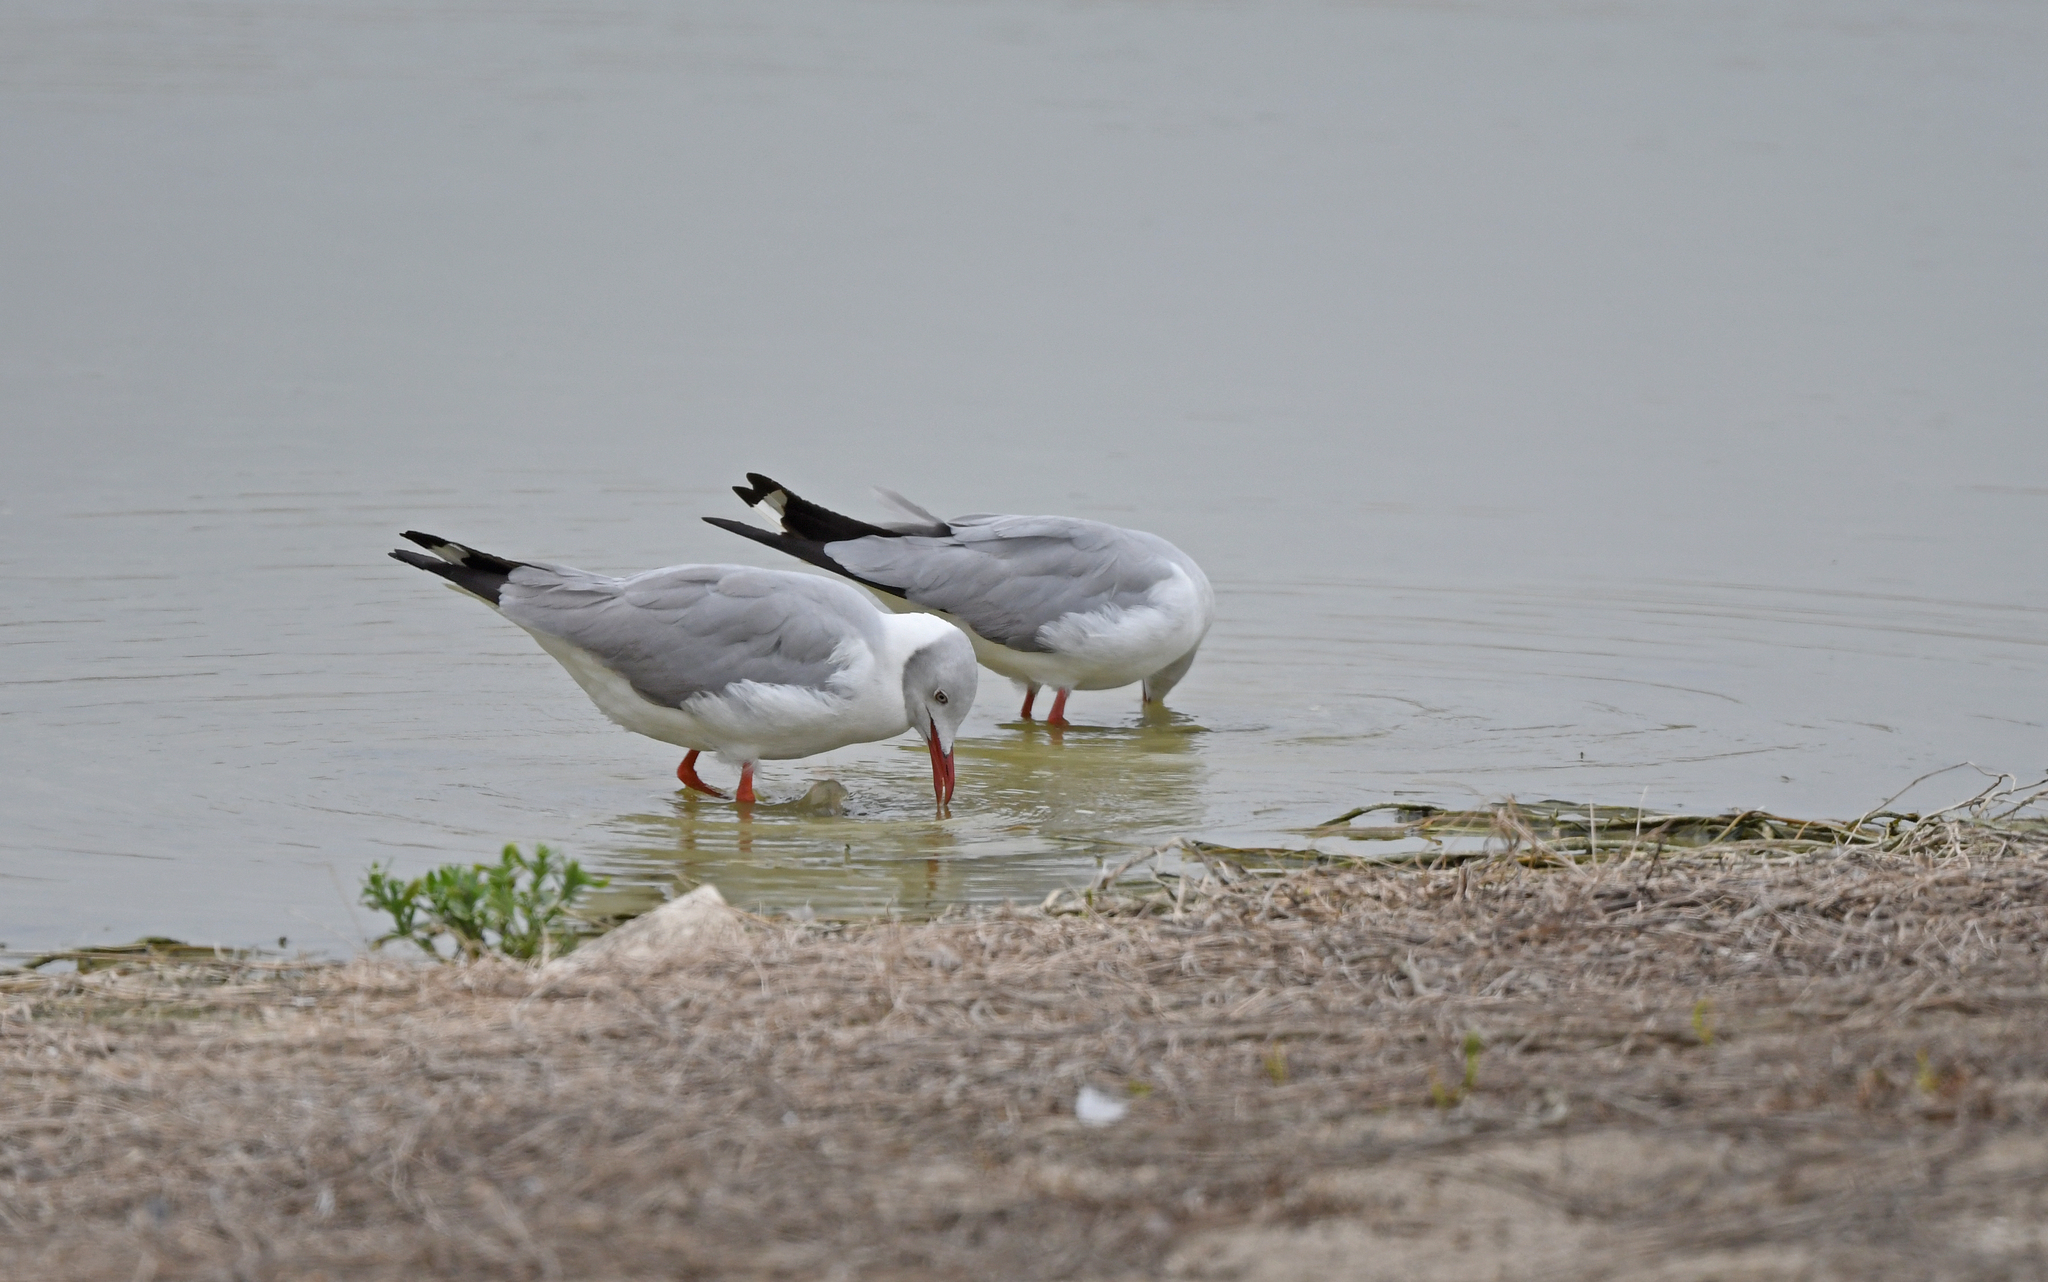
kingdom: Animalia
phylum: Chordata
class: Aves
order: Charadriiformes
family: Laridae
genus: Chroicocephalus
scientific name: Chroicocephalus cirrocephalus
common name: Grey-headed gull
